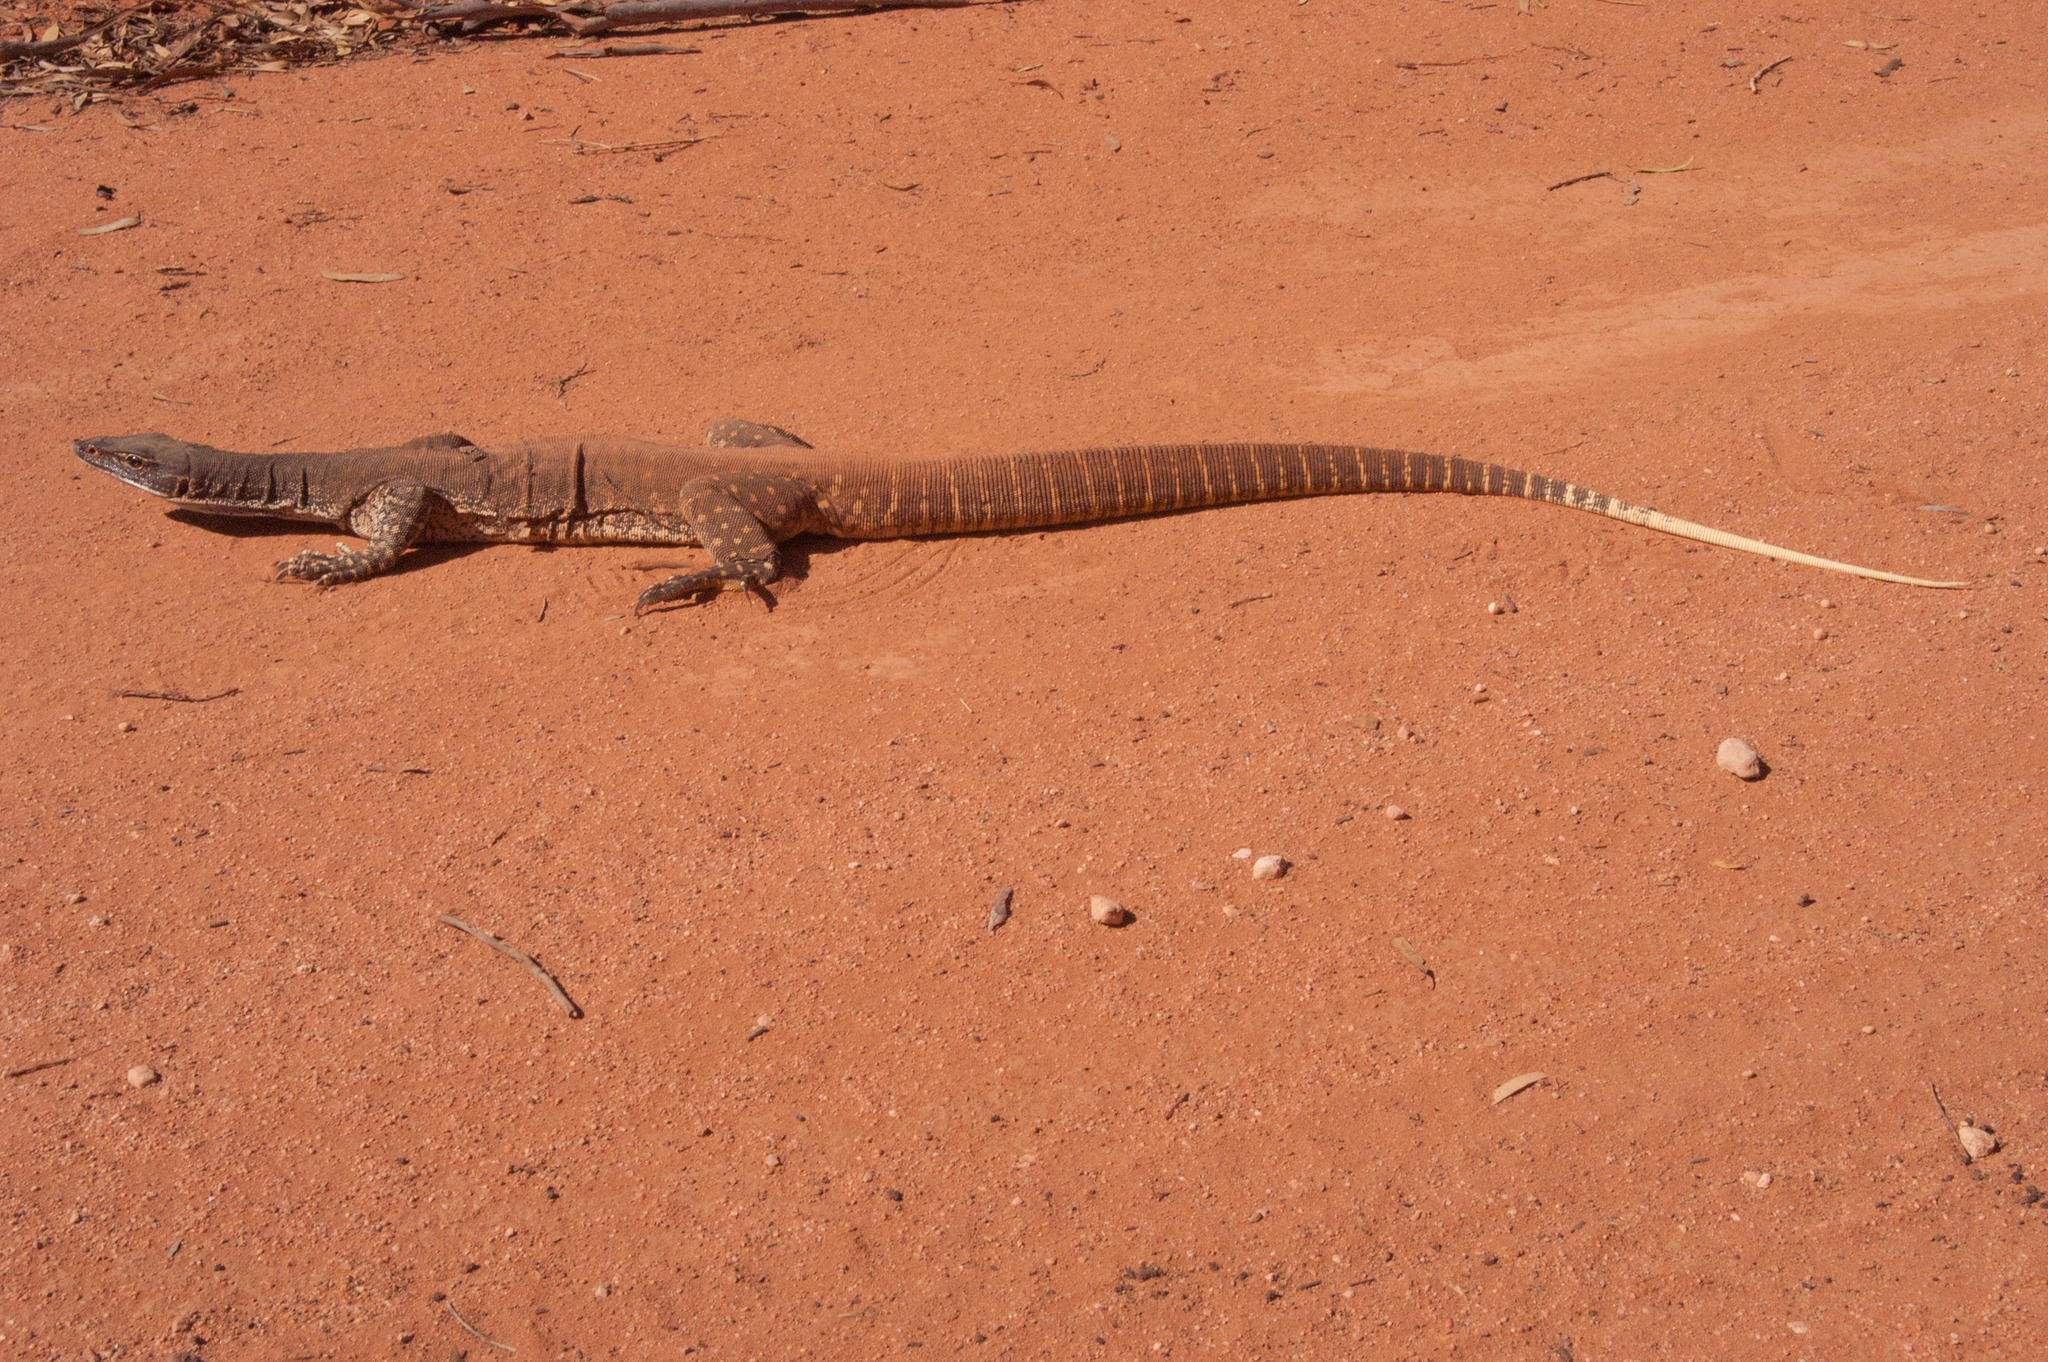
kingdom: Animalia
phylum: Chordata
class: Squamata
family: Varanidae
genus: Varanus
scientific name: Varanus gouldii
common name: Gould's goanna
